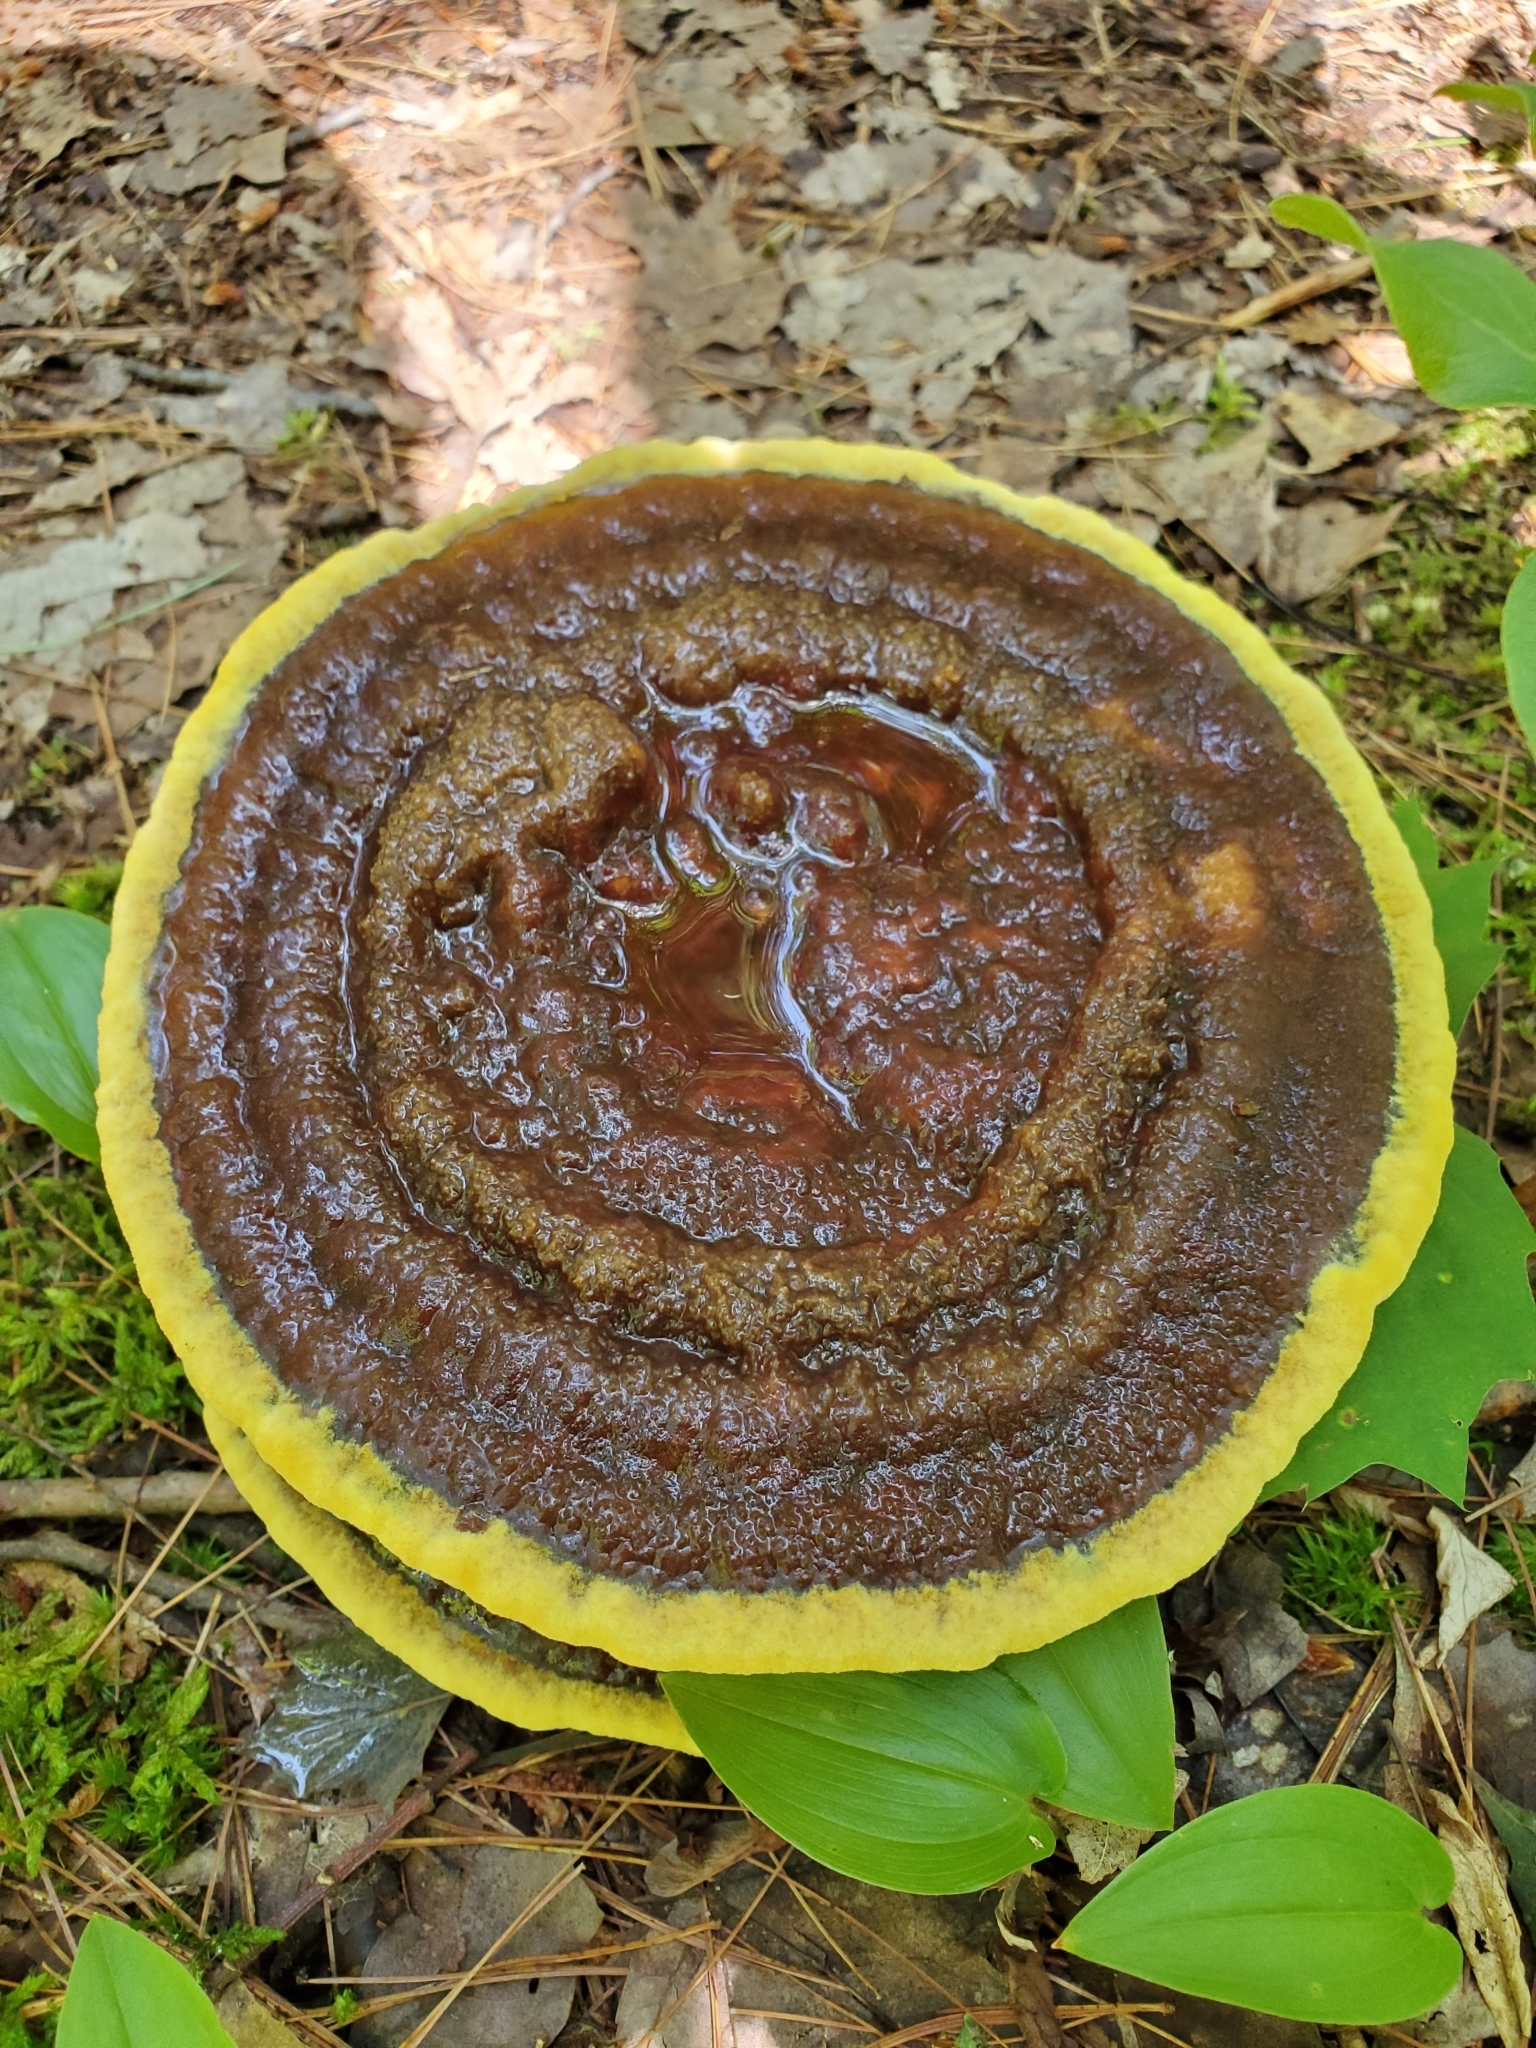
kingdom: Fungi
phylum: Basidiomycota
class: Agaricomycetes
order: Polyporales
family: Laetiporaceae
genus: Phaeolus
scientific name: Phaeolus schweinitzii
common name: Dyer's mazegill
